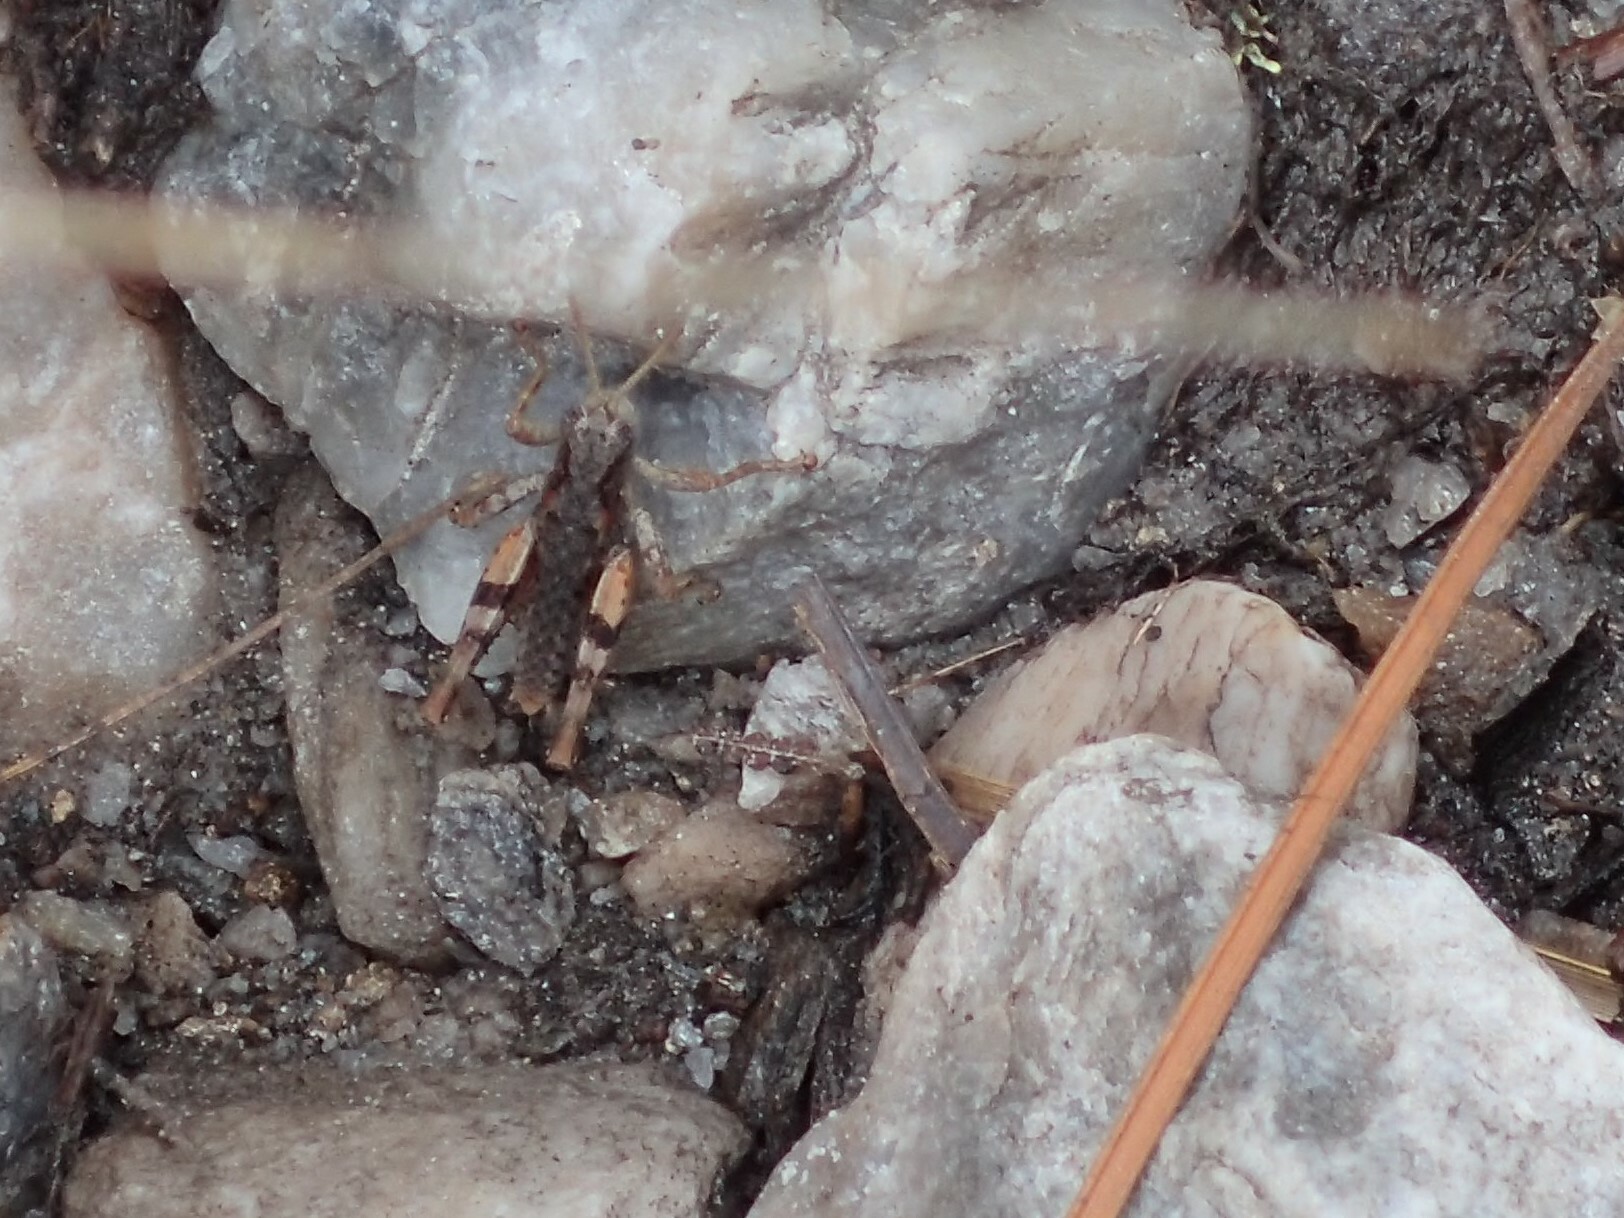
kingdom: Animalia
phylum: Arthropoda
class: Insecta
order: Orthoptera
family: Acrididae
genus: Tasmaniacris
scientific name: Tasmaniacris tasmaniensis
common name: Tasmanian grasshopper
